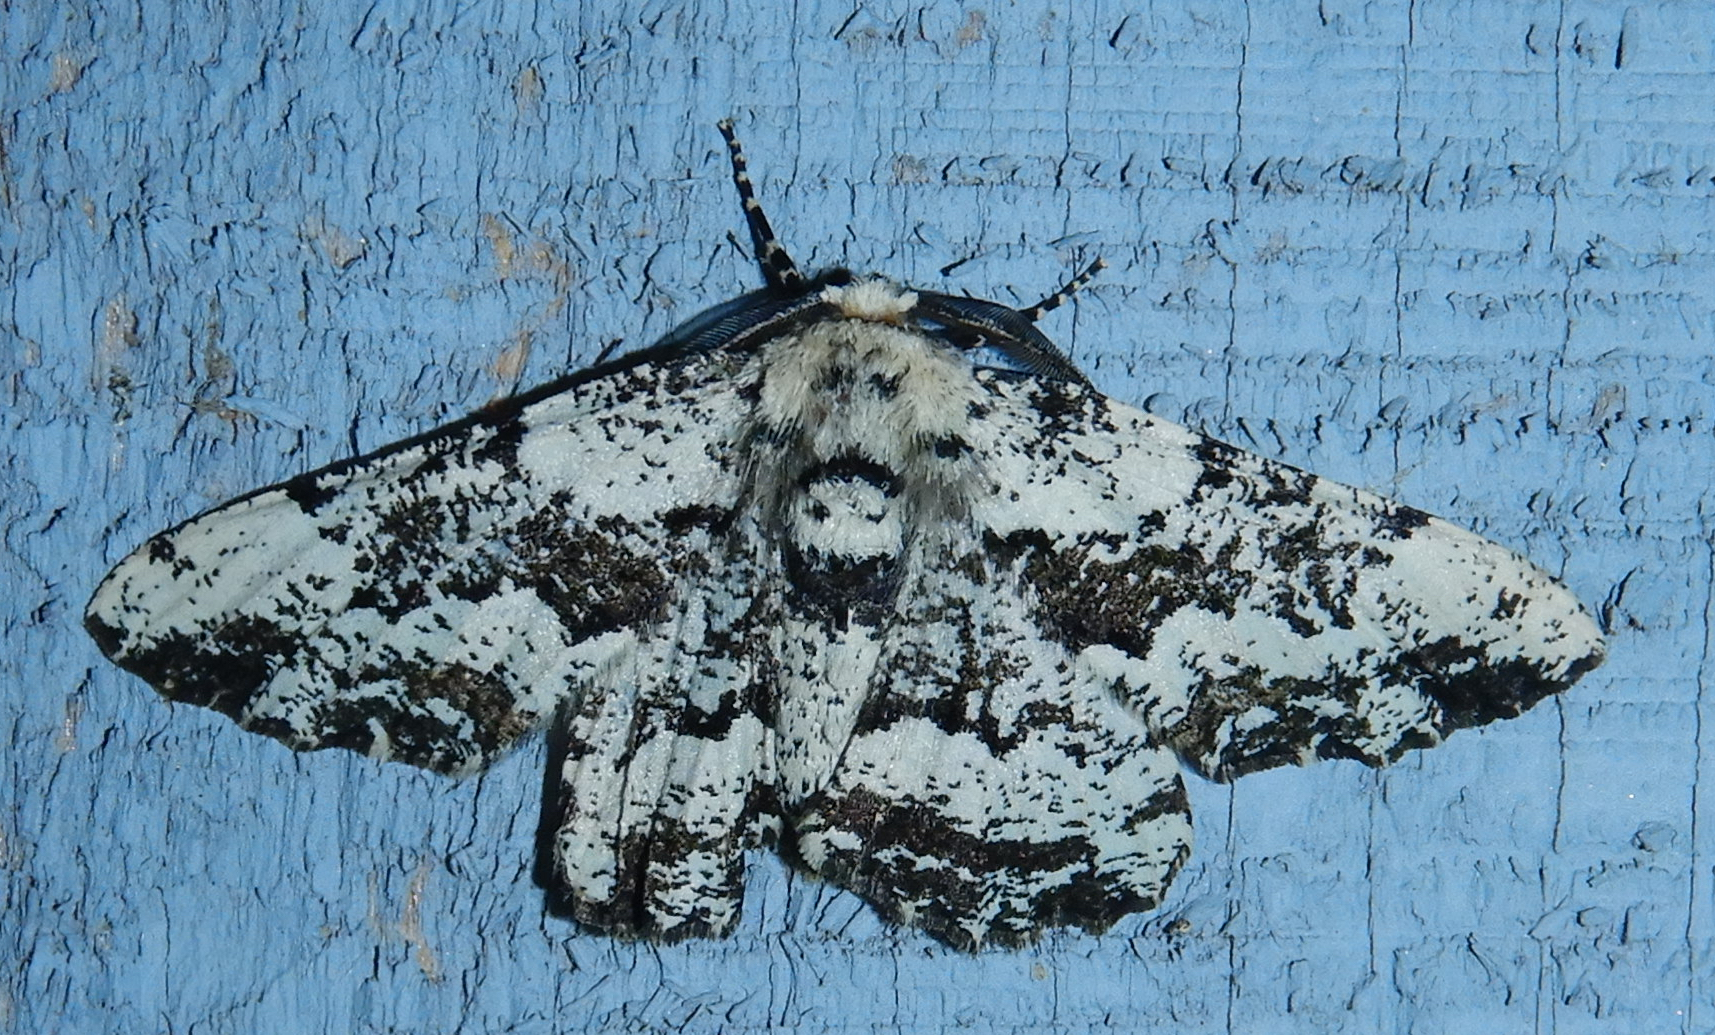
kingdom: Animalia
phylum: Arthropoda
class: Insecta
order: Lepidoptera
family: Geometridae
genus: Phaeoura
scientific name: Phaeoura quernaria
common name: Oak beauty
